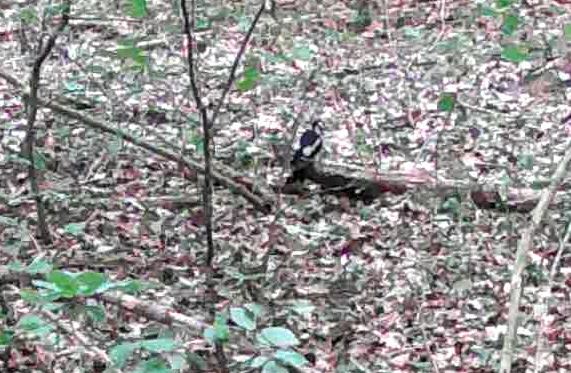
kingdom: Animalia
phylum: Chordata
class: Aves
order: Piciformes
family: Picidae
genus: Dendrocopos
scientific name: Dendrocopos major
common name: Great spotted woodpecker
